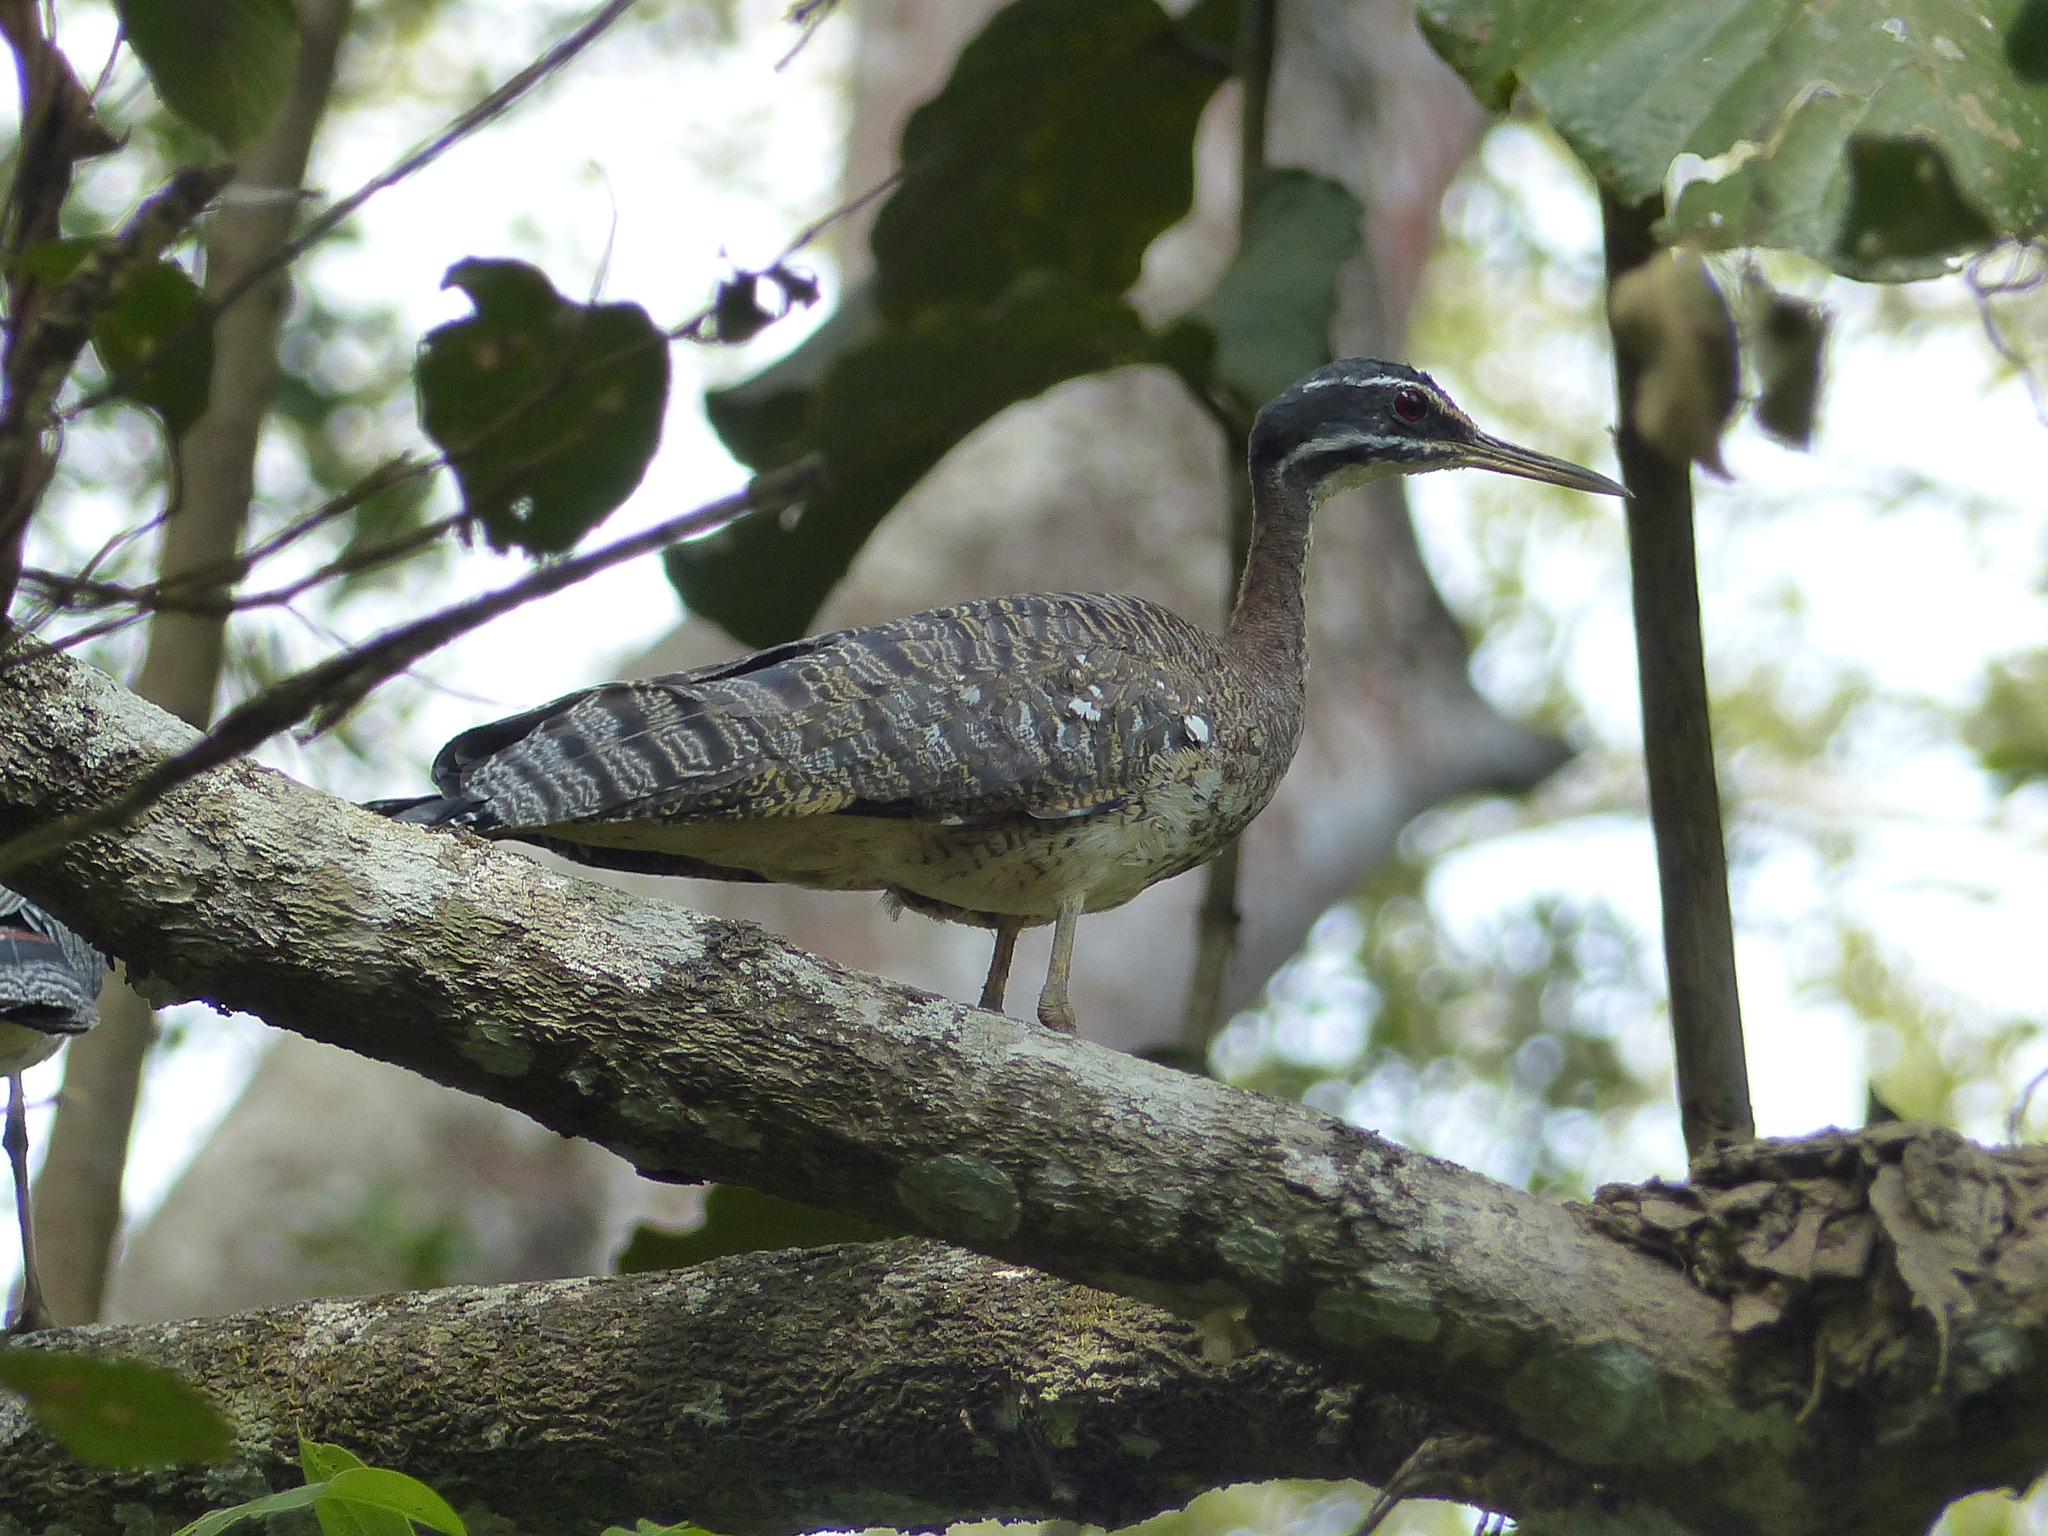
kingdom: Animalia
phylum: Chordata
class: Aves
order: Eurypygiformes
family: Eurypygidae
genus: Eurypyga
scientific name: Eurypyga helias
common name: Sunbittern
